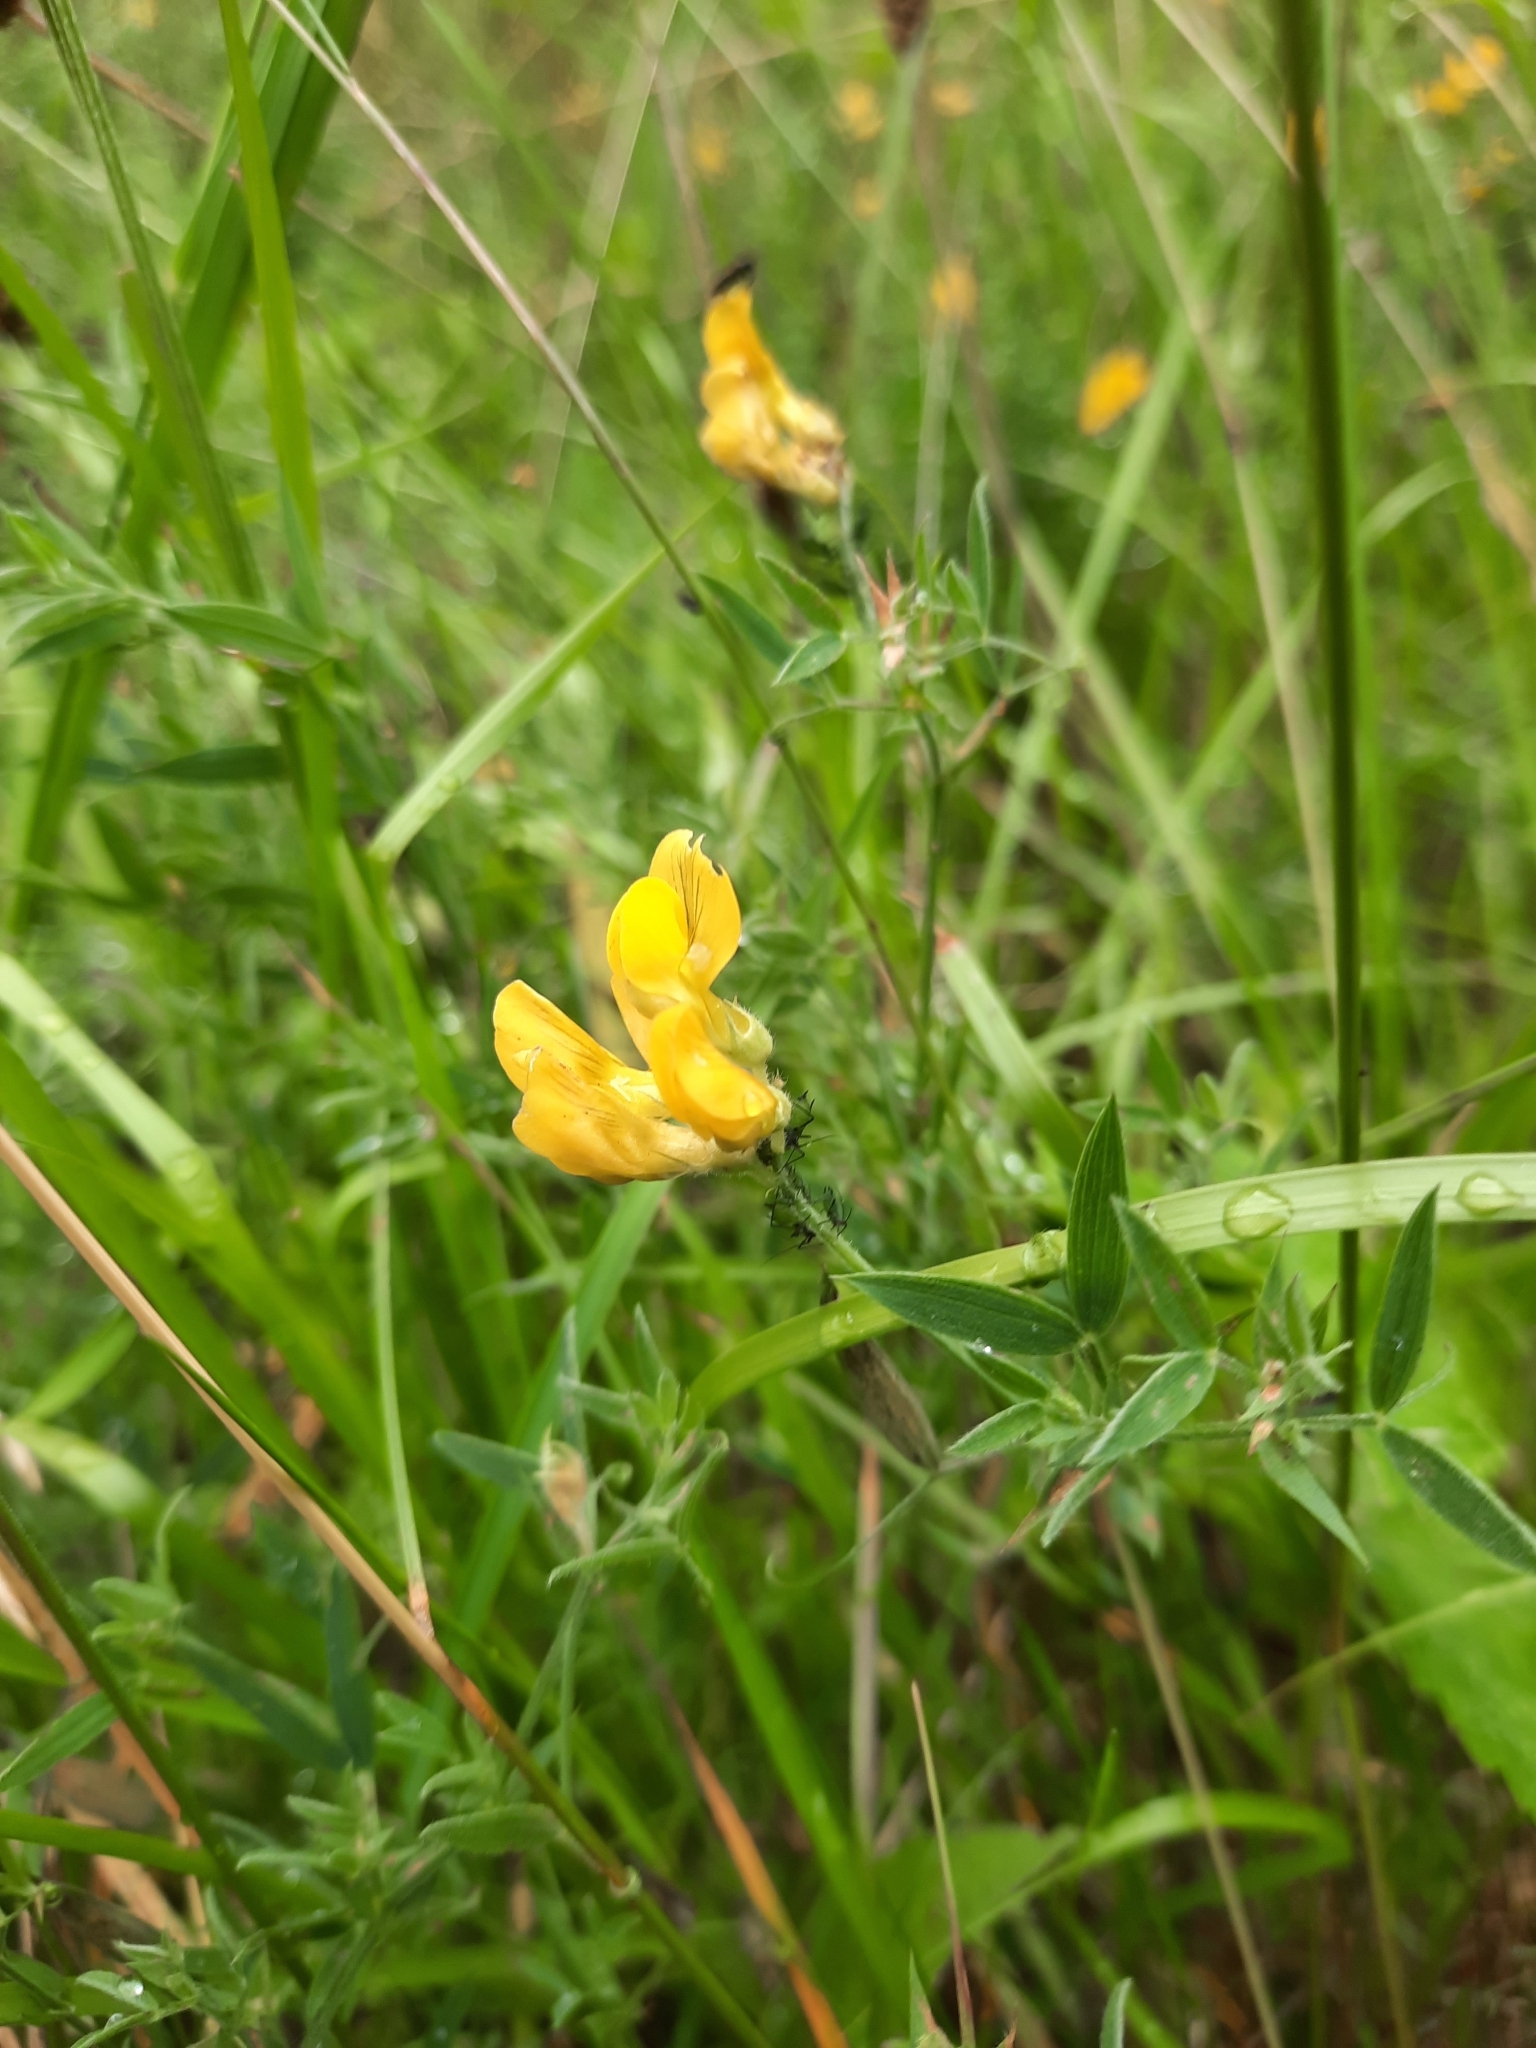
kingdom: Plantae
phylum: Tracheophyta
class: Magnoliopsida
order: Fabales
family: Fabaceae
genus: Lathyrus
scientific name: Lathyrus pratensis
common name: Meadow vetchling
